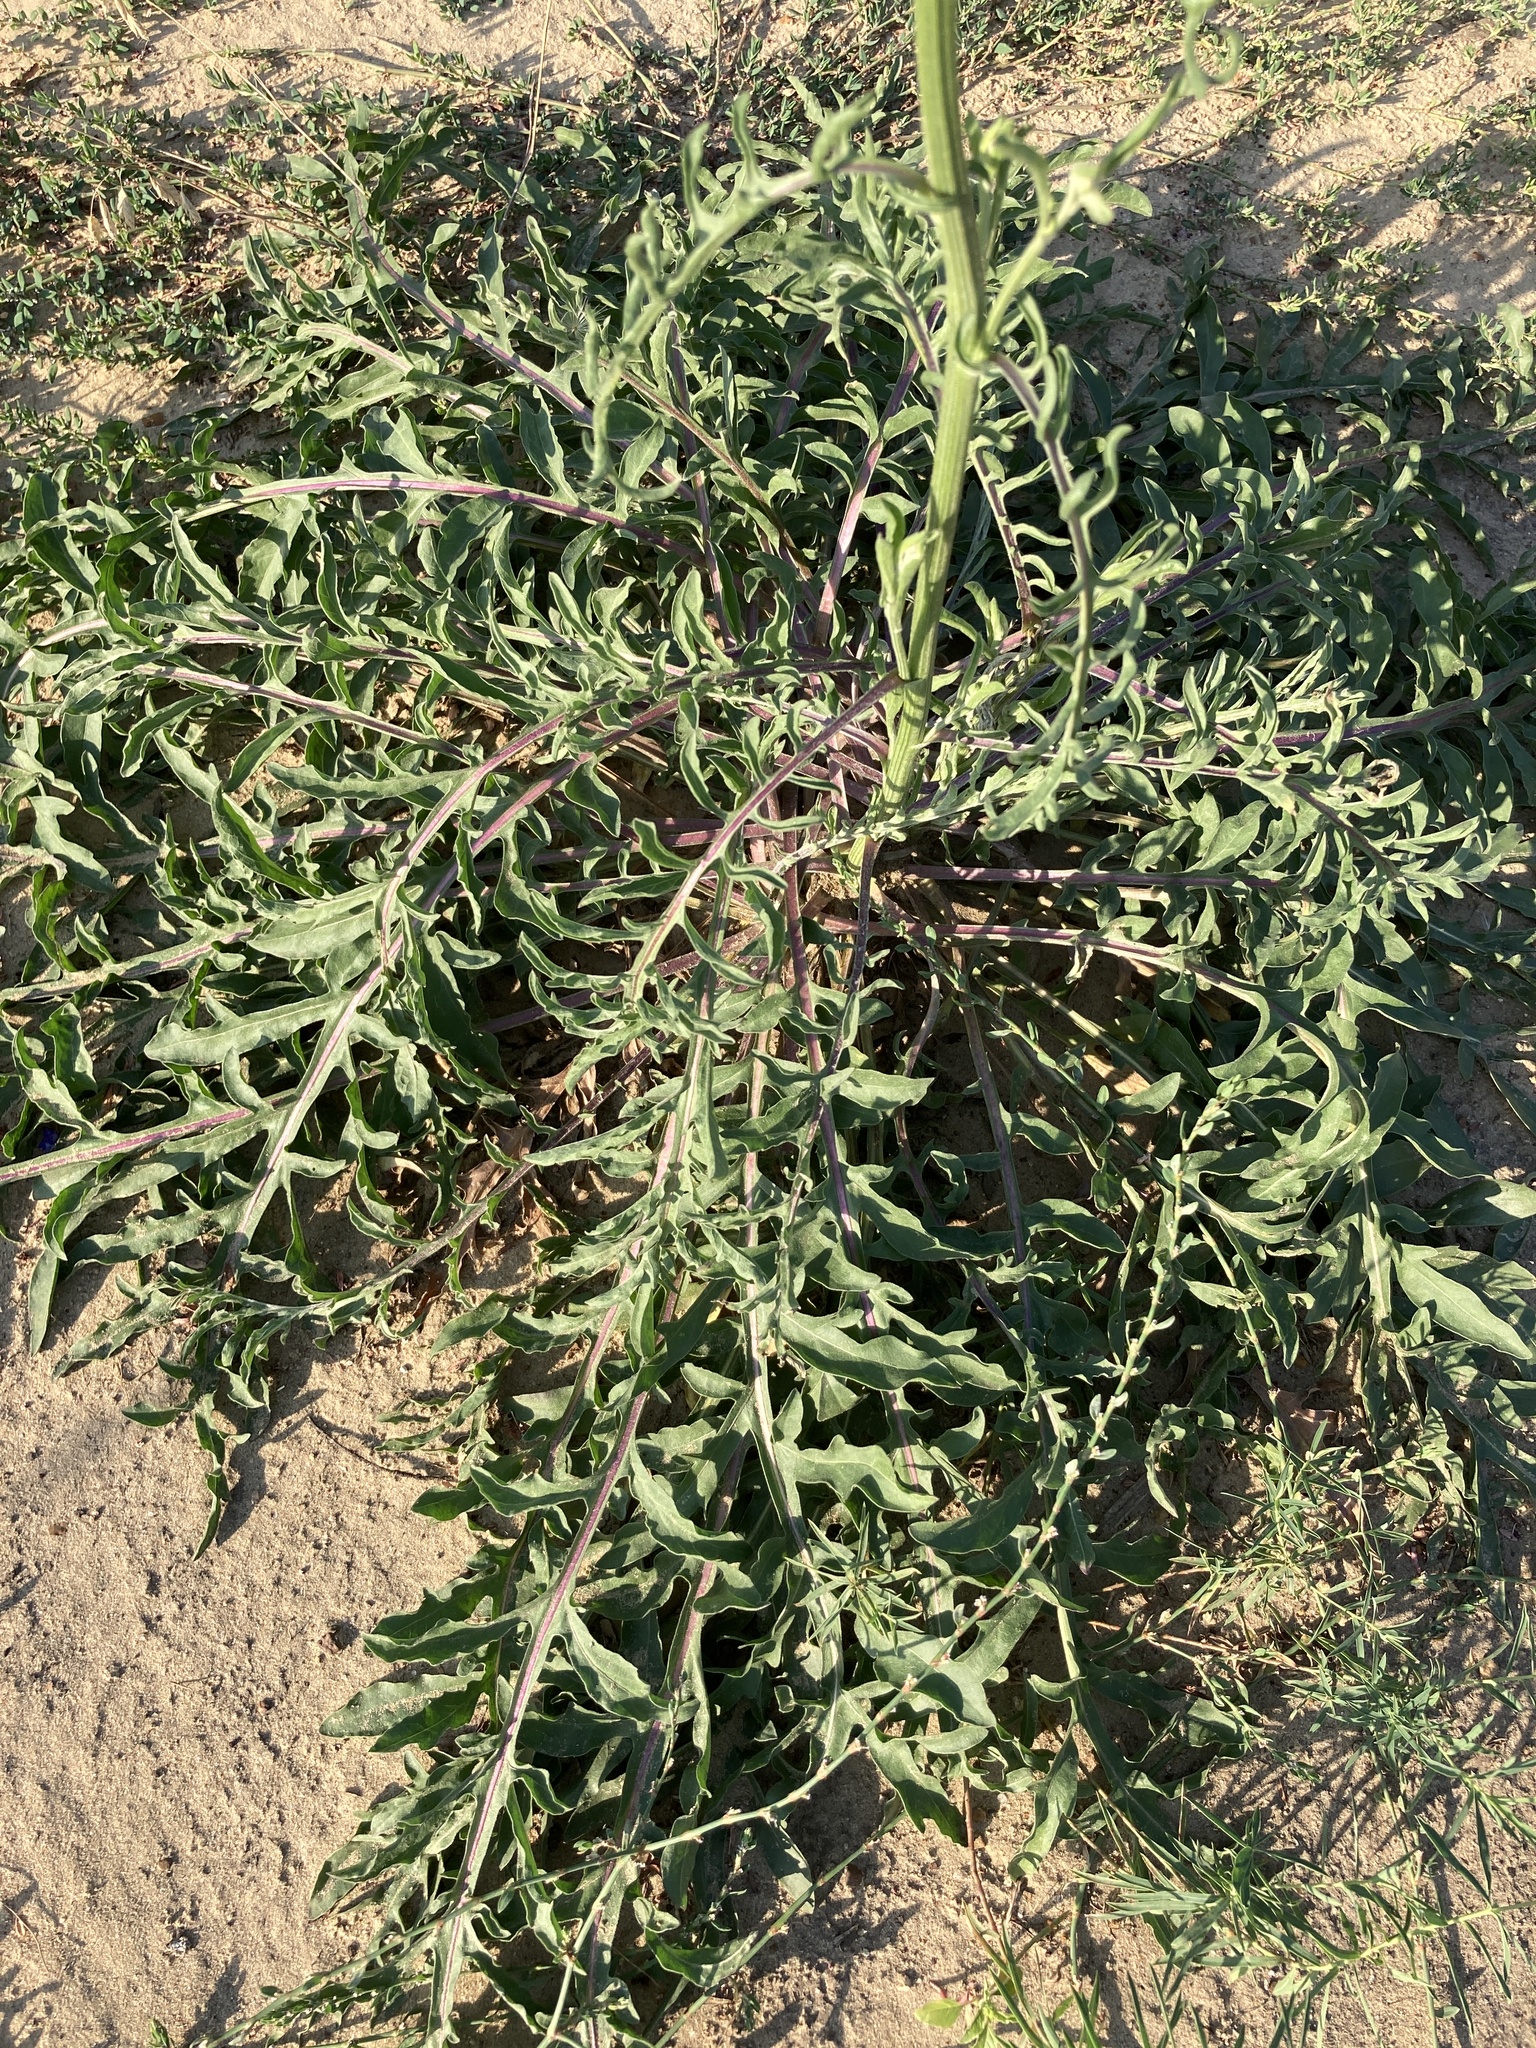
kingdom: Plantae
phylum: Tracheophyta
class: Magnoliopsida
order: Asterales
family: Asteraceae
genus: Centaurea
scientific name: Centaurea adpressa
